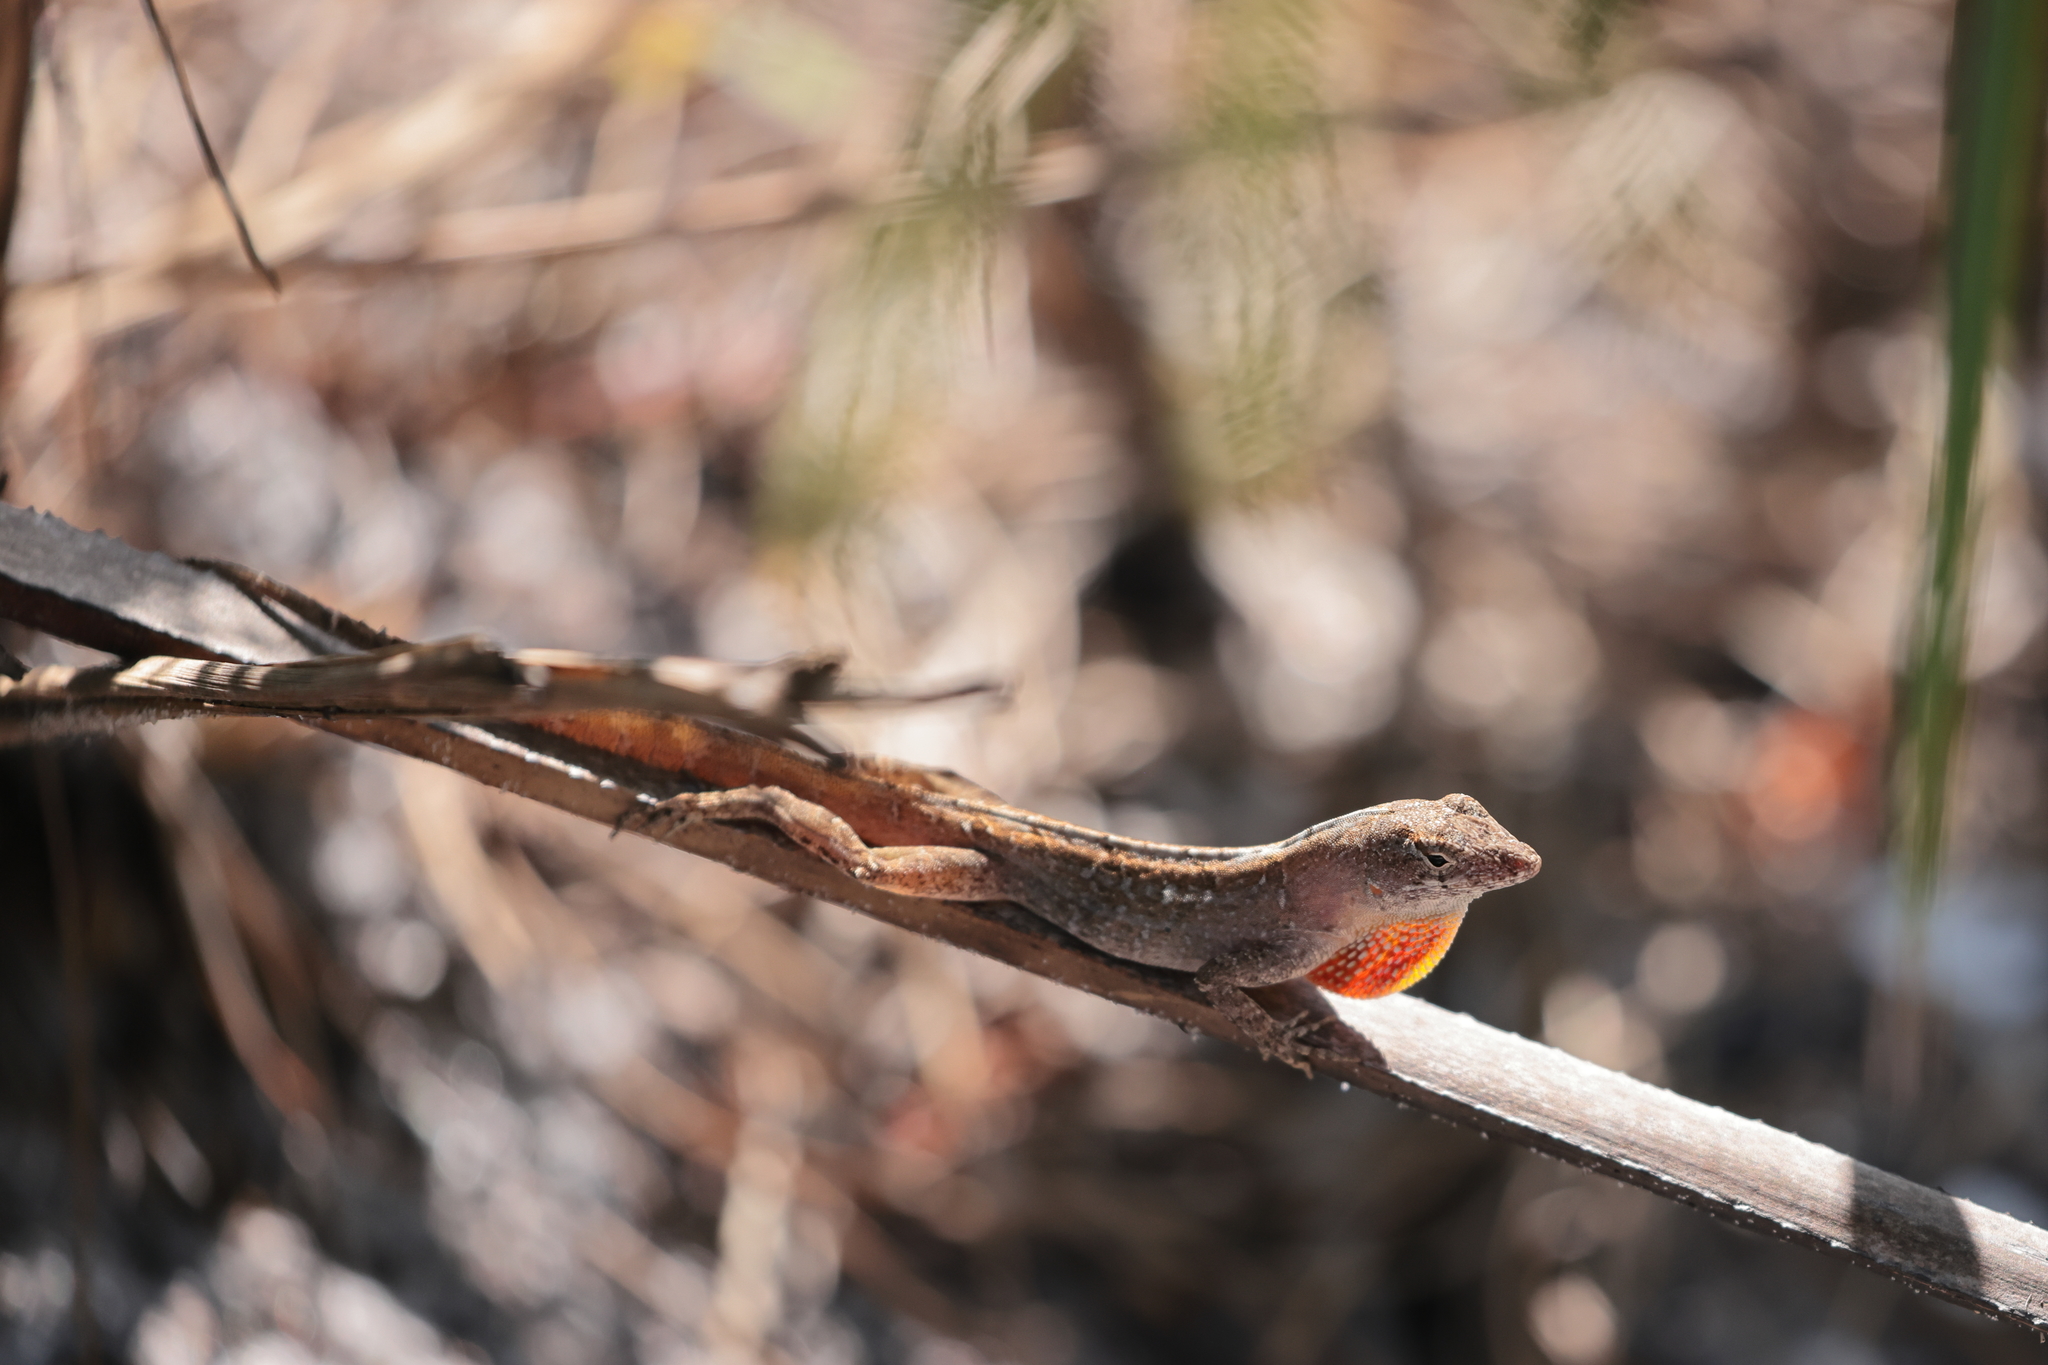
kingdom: Animalia
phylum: Chordata
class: Squamata
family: Dactyloidae
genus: Anolis
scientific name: Anolis sagrei
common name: Brown anole
